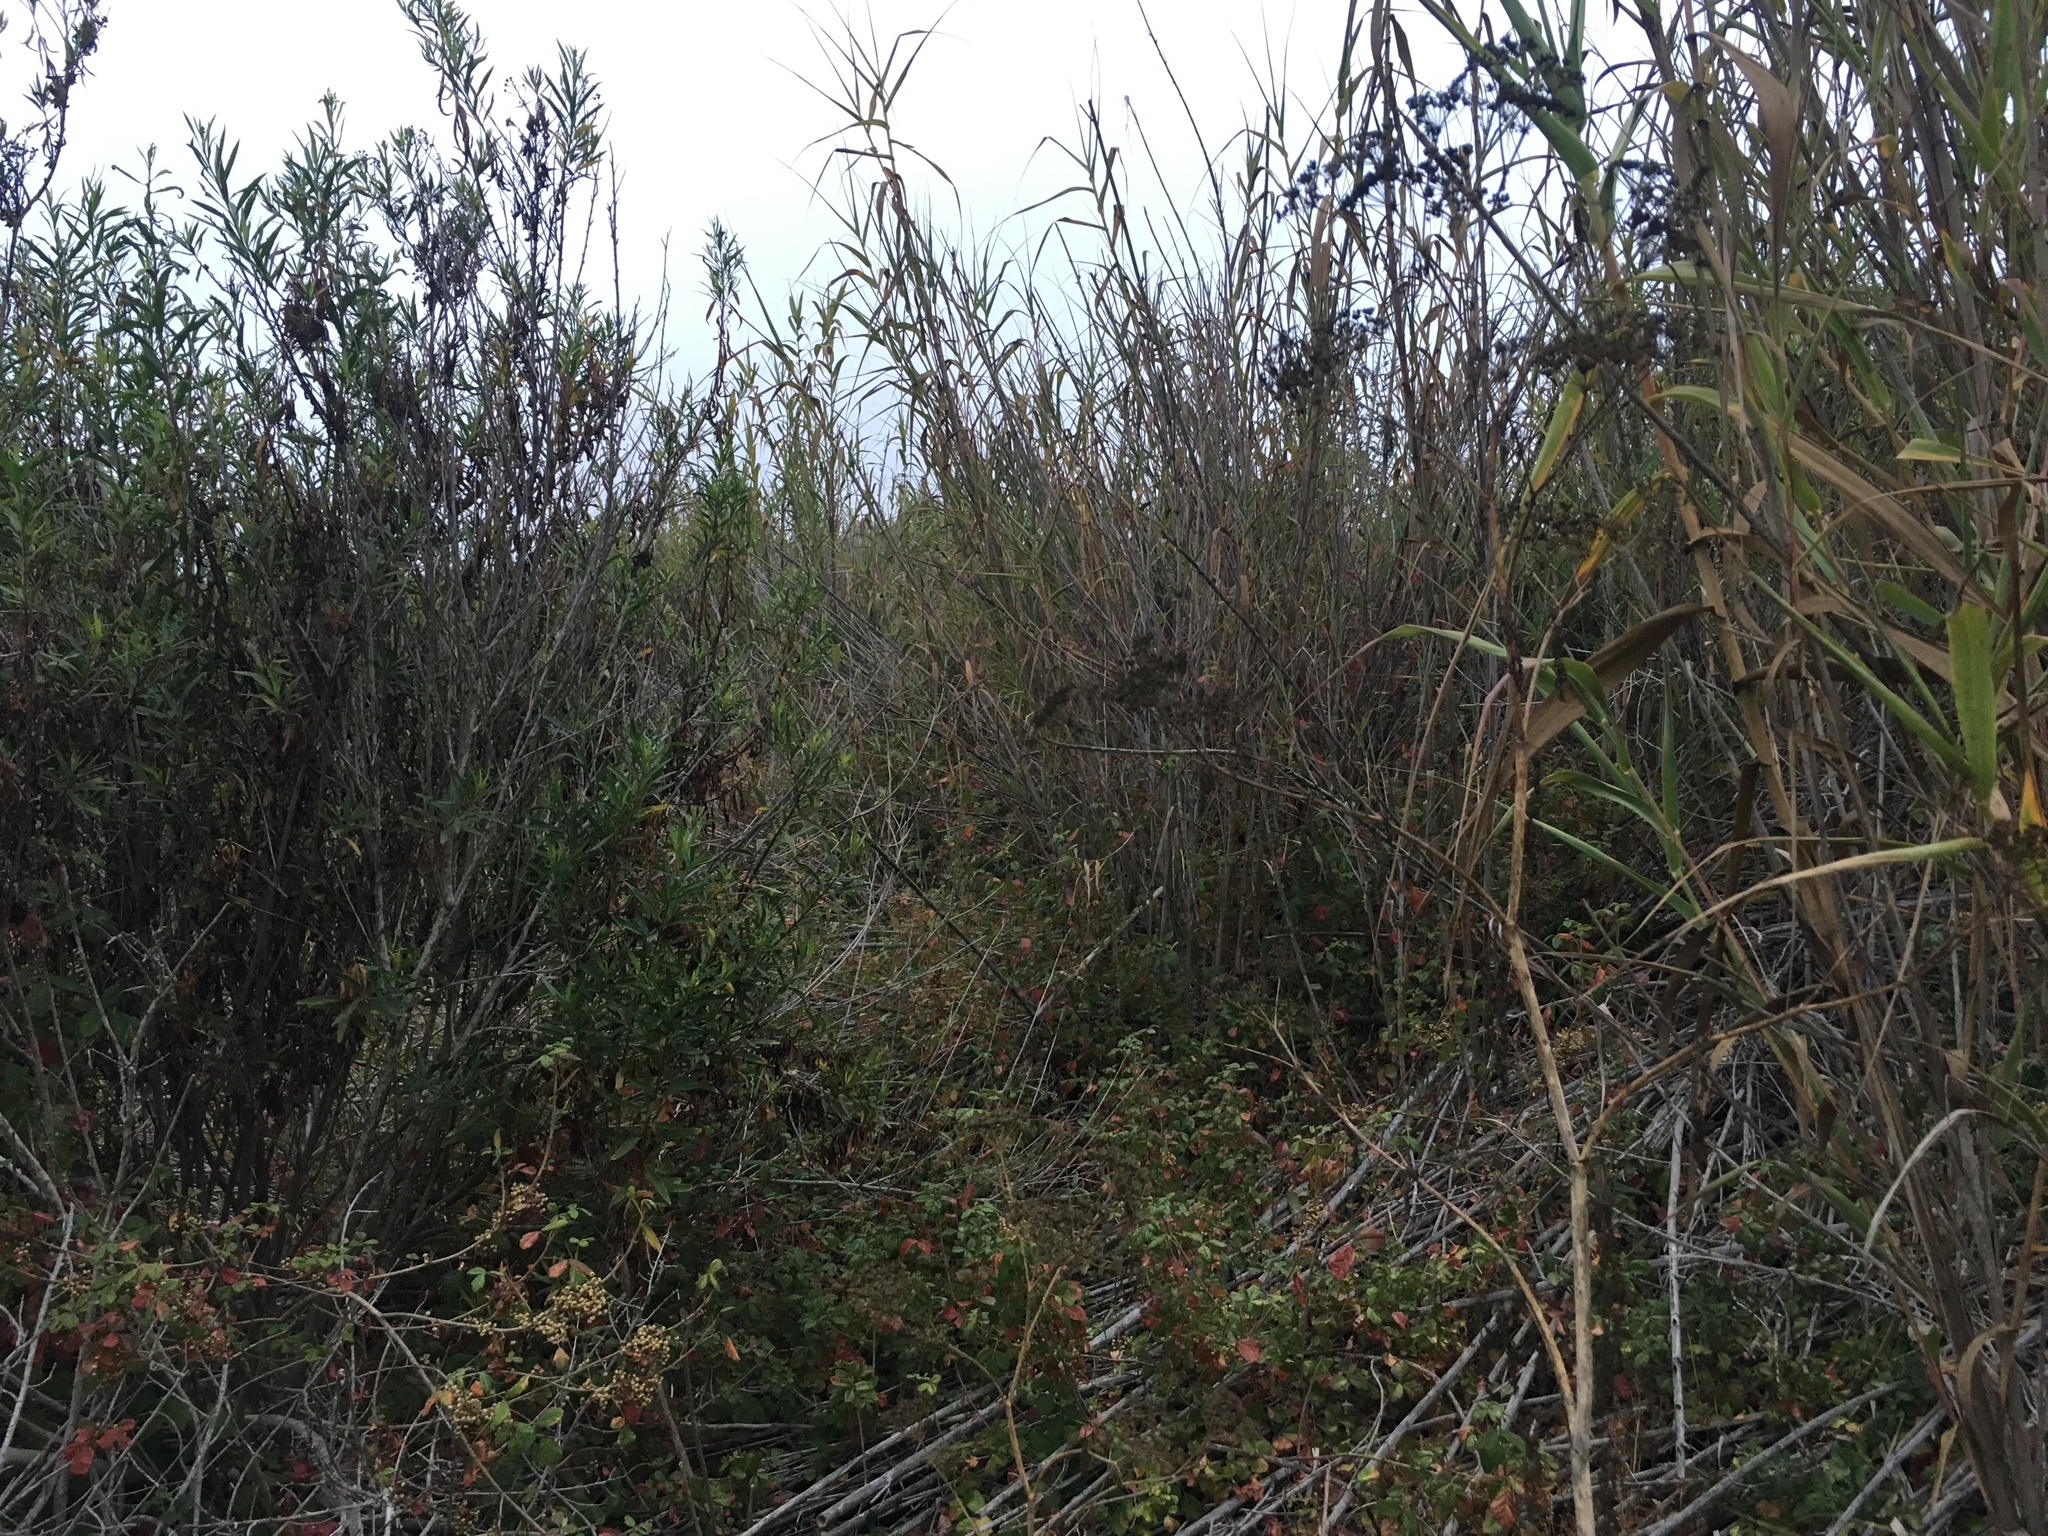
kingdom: Plantae
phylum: Tracheophyta
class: Liliopsida
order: Poales
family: Poaceae
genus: Arundo
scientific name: Arundo donax
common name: Giant reed
